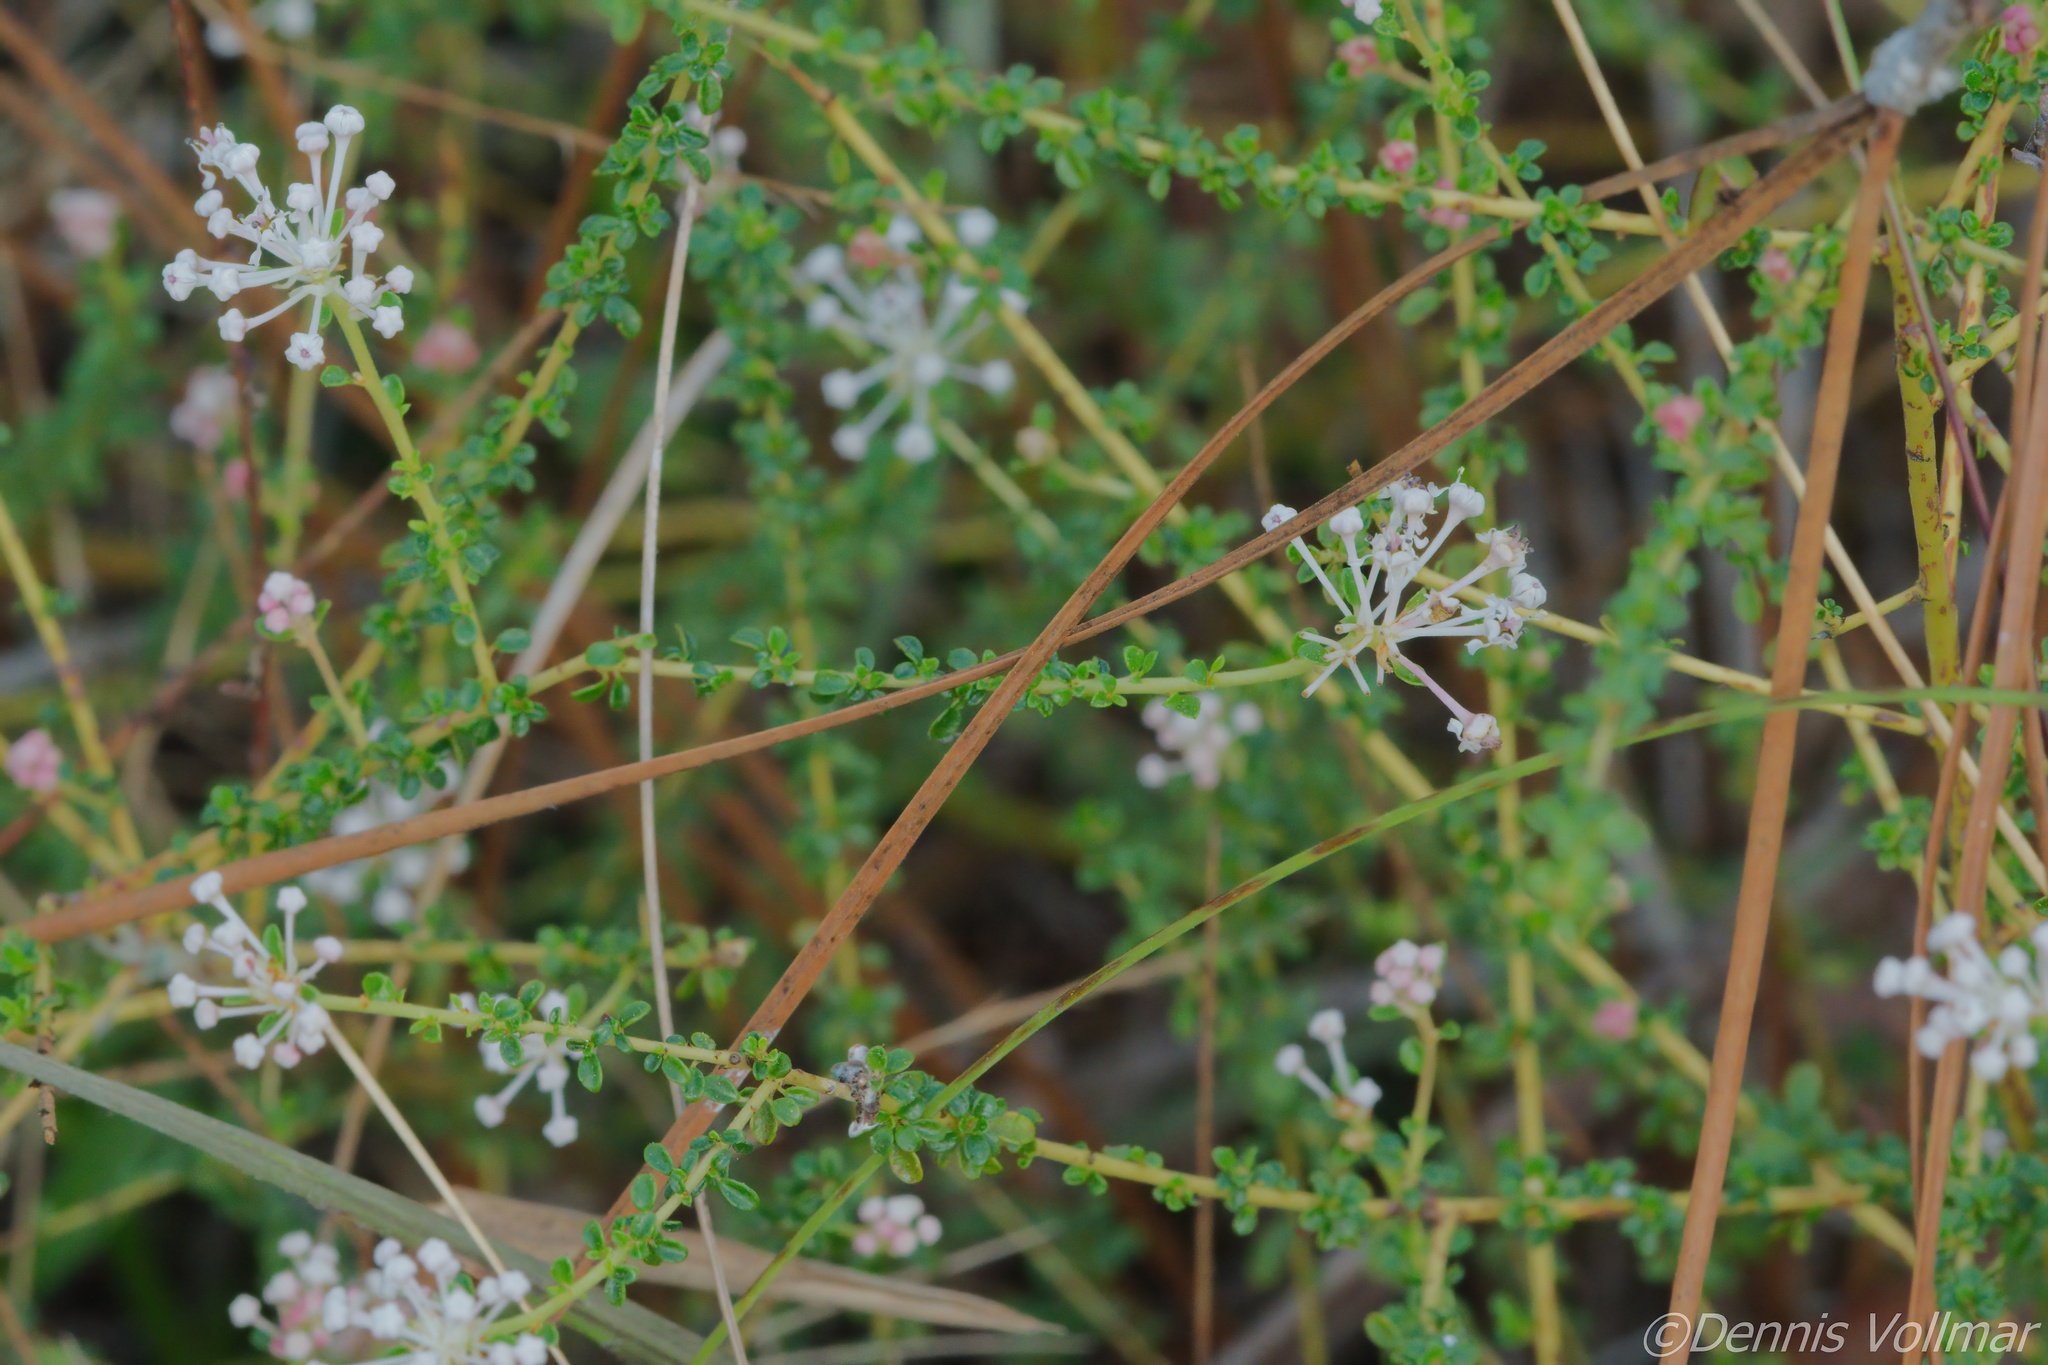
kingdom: Plantae
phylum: Tracheophyta
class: Magnoliopsida
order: Rosales
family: Rhamnaceae
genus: Ceanothus
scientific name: Ceanothus microphyllus
